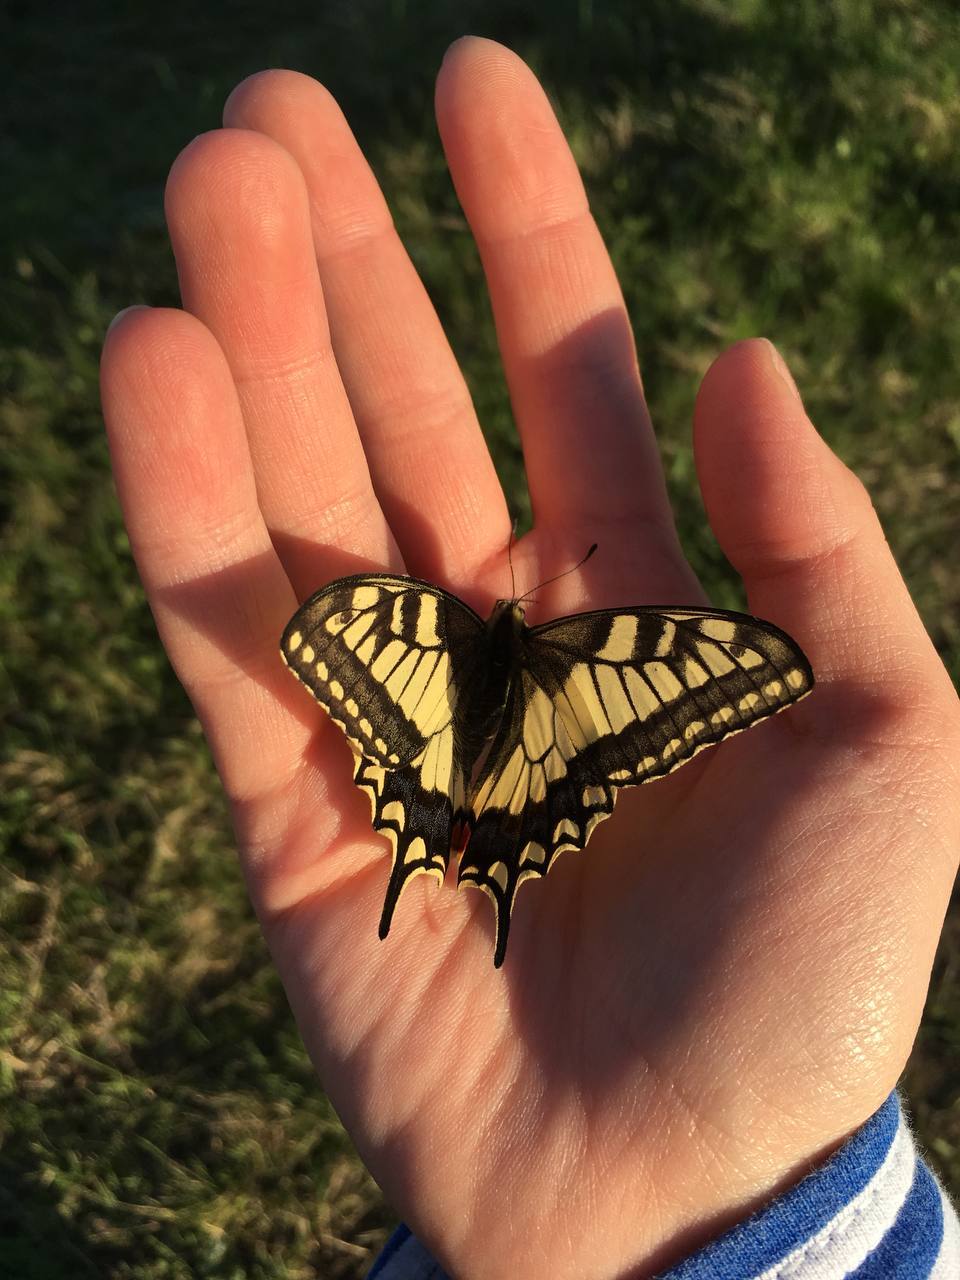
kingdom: Animalia
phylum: Arthropoda
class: Insecta
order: Lepidoptera
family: Papilionidae
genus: Papilio
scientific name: Papilio machaon
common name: Swallowtail
